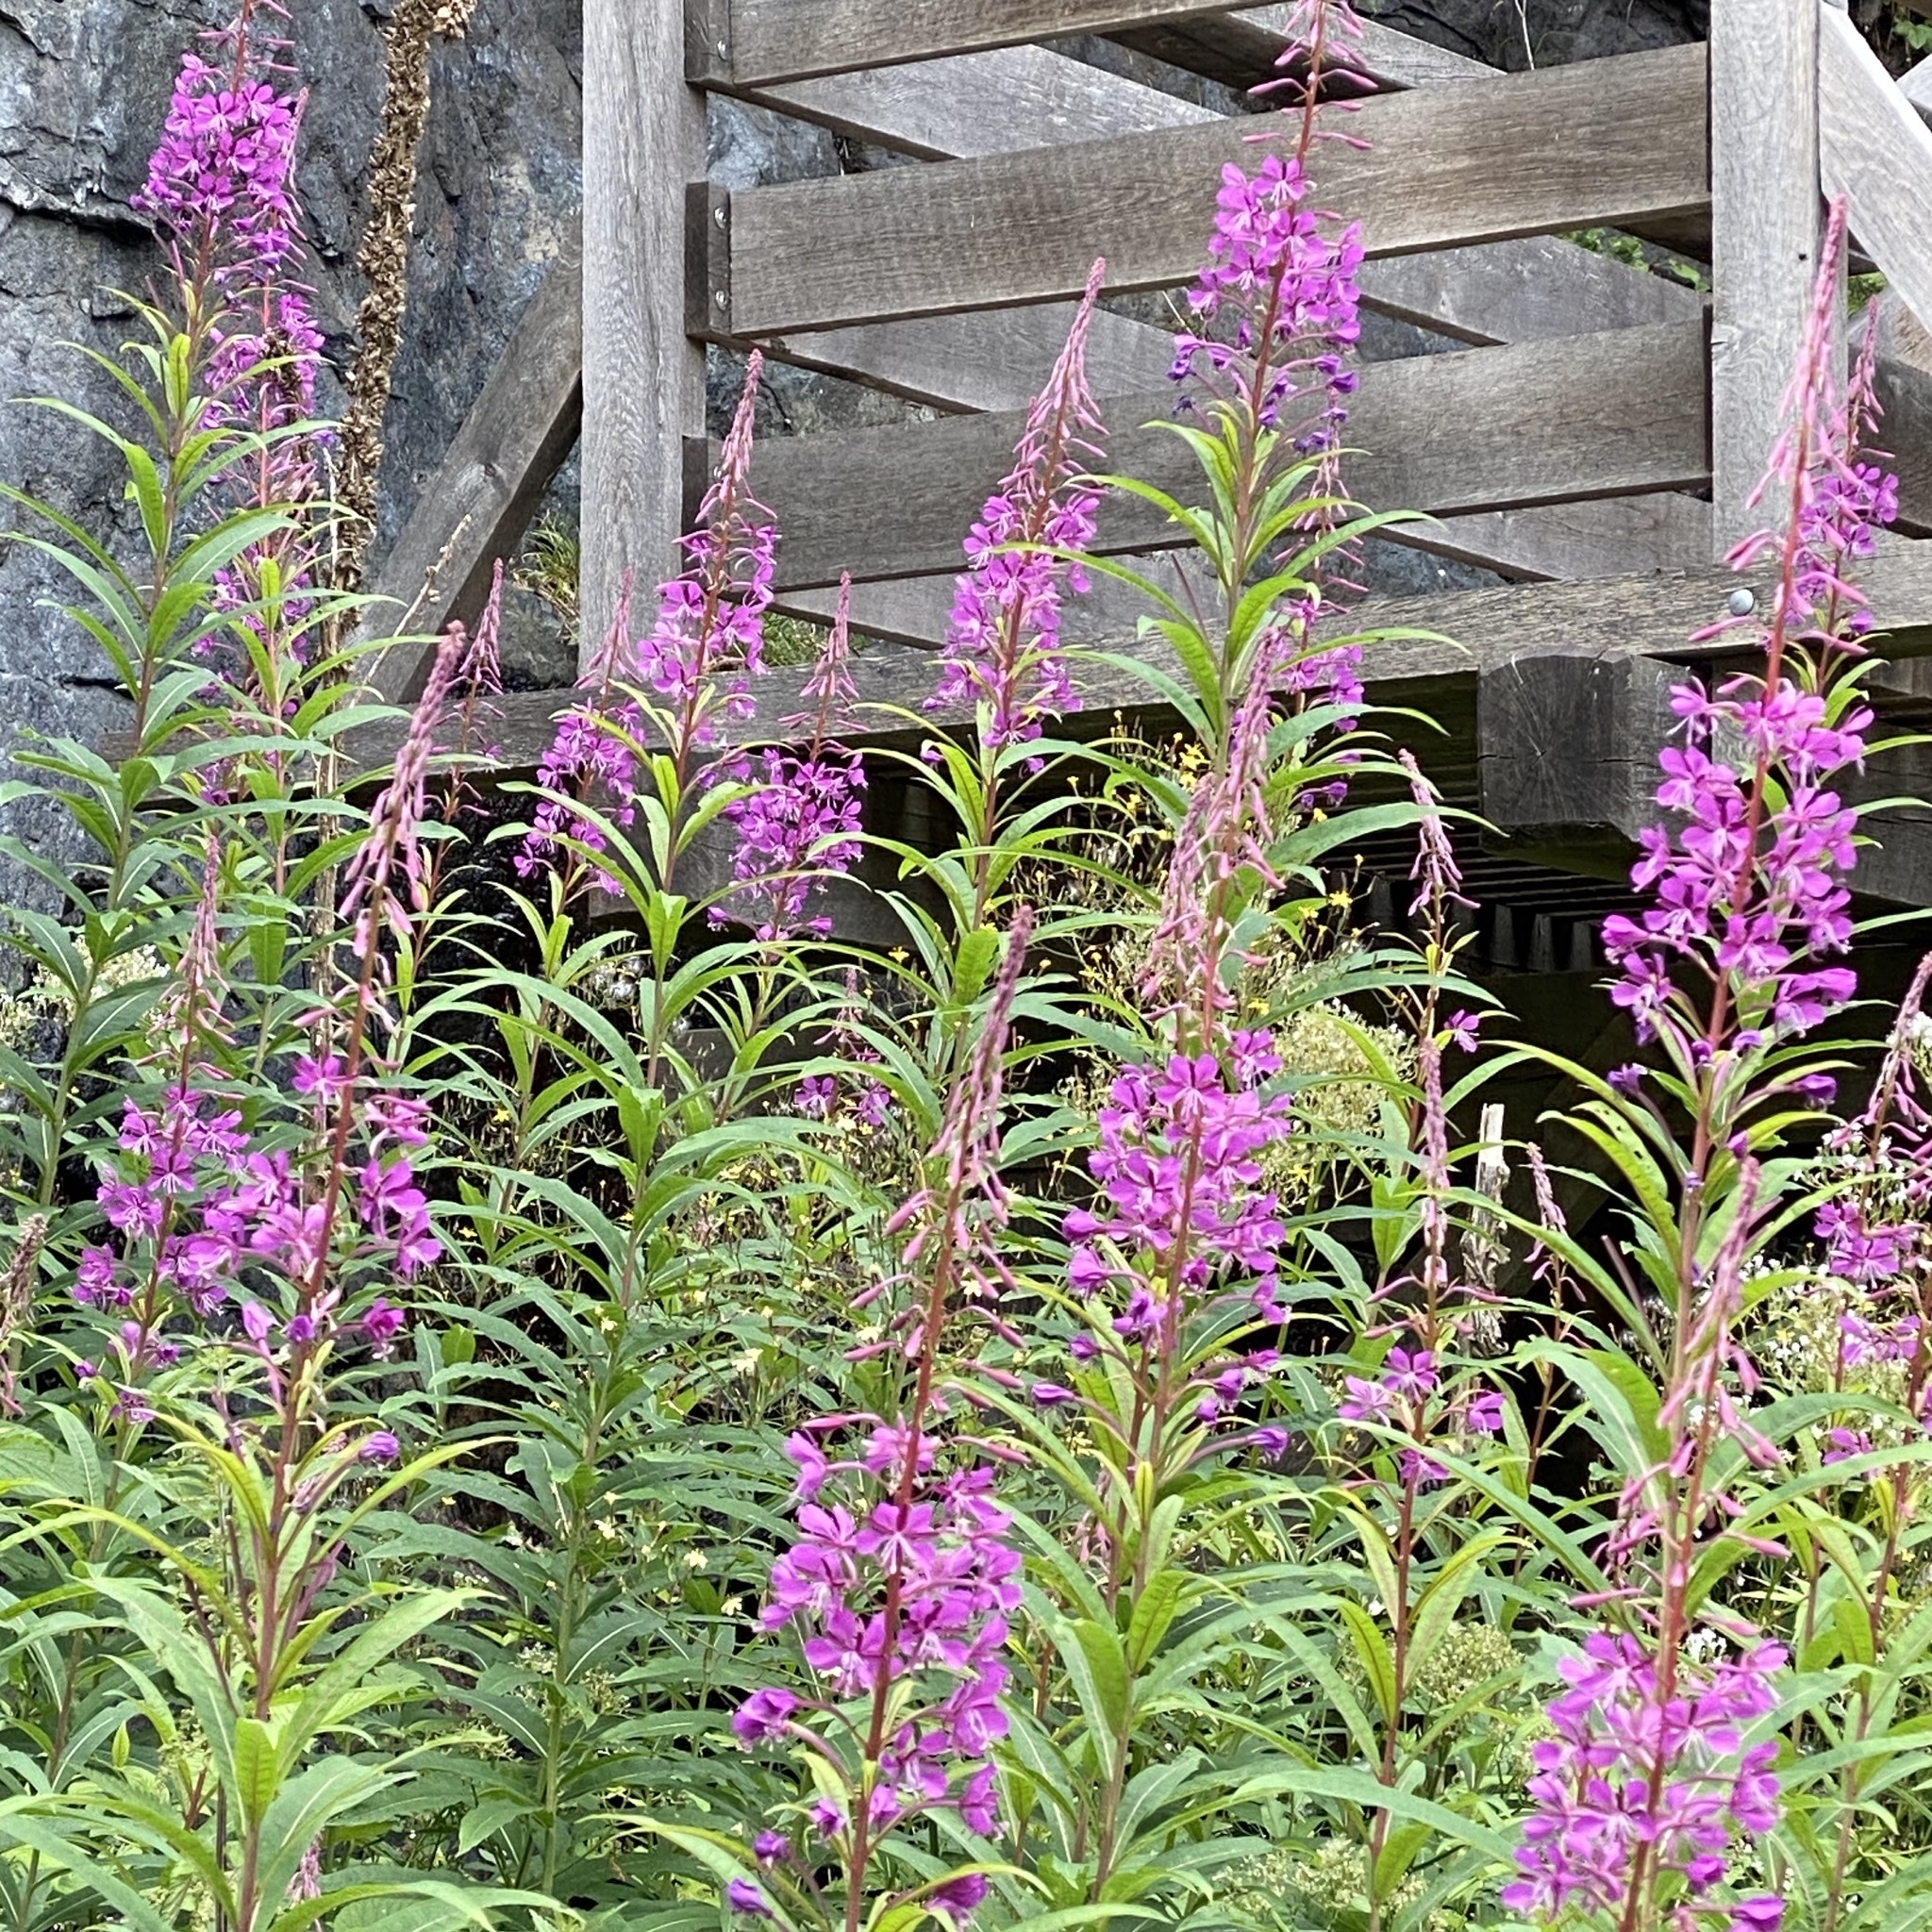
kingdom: Plantae
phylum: Tracheophyta
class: Magnoliopsida
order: Myrtales
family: Onagraceae
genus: Chamaenerion
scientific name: Chamaenerion angustifolium
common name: Fireweed
